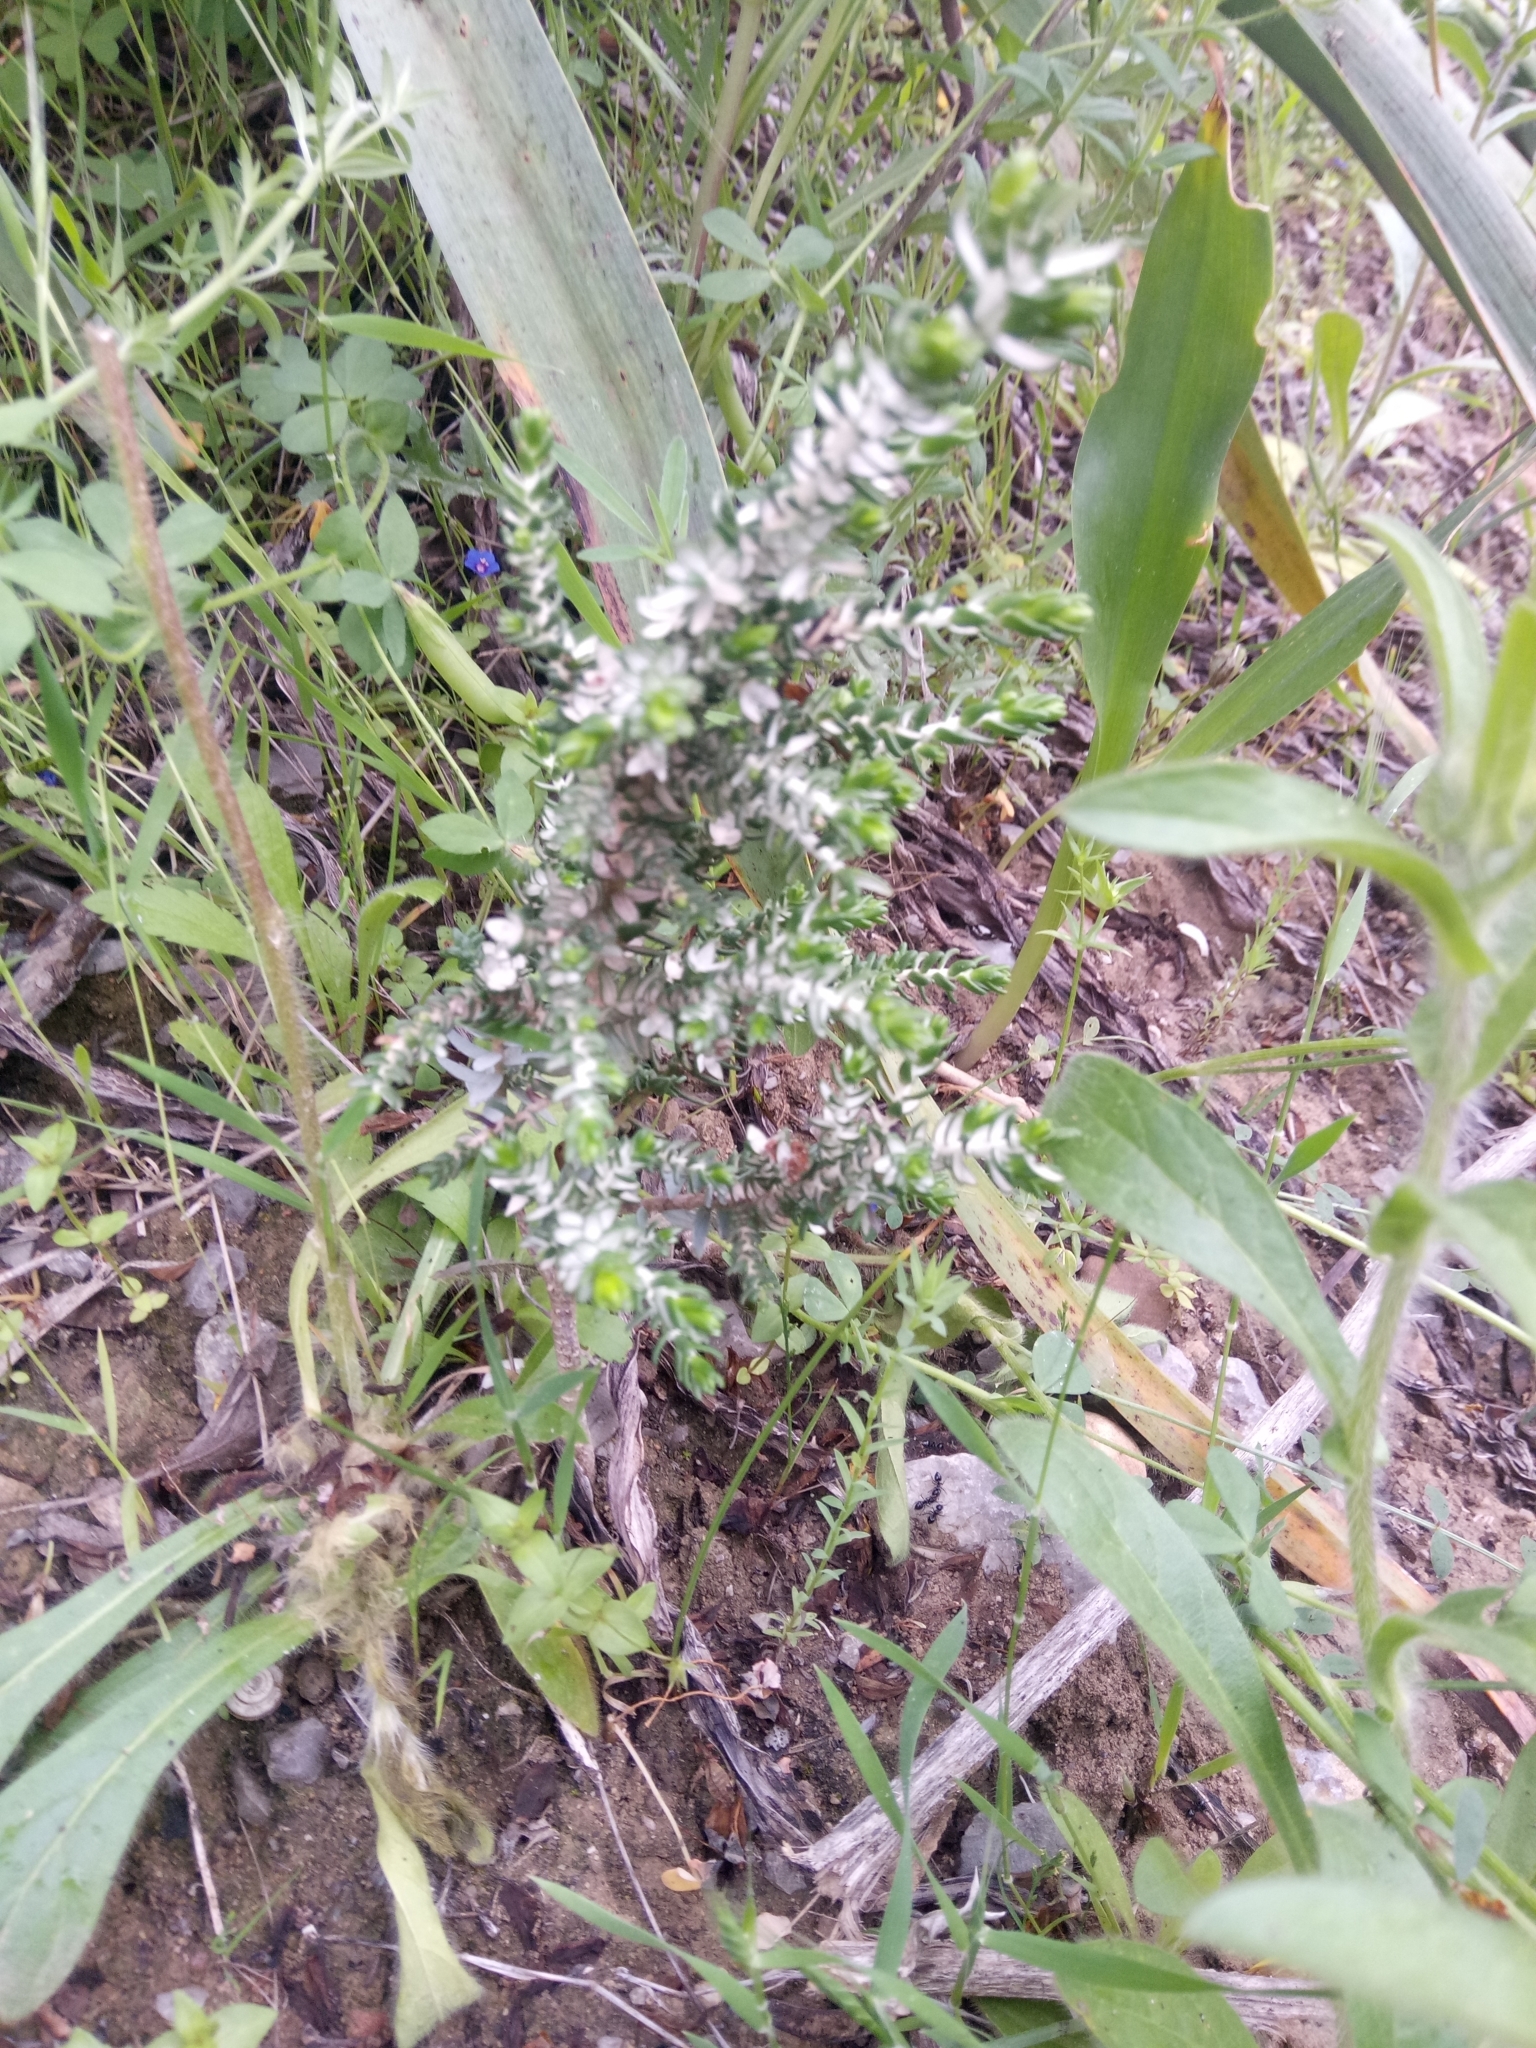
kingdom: Plantae
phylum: Tracheophyta
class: Magnoliopsida
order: Malvales
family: Thymelaeaceae
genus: Thymelaea
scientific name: Thymelaea hirsuta
